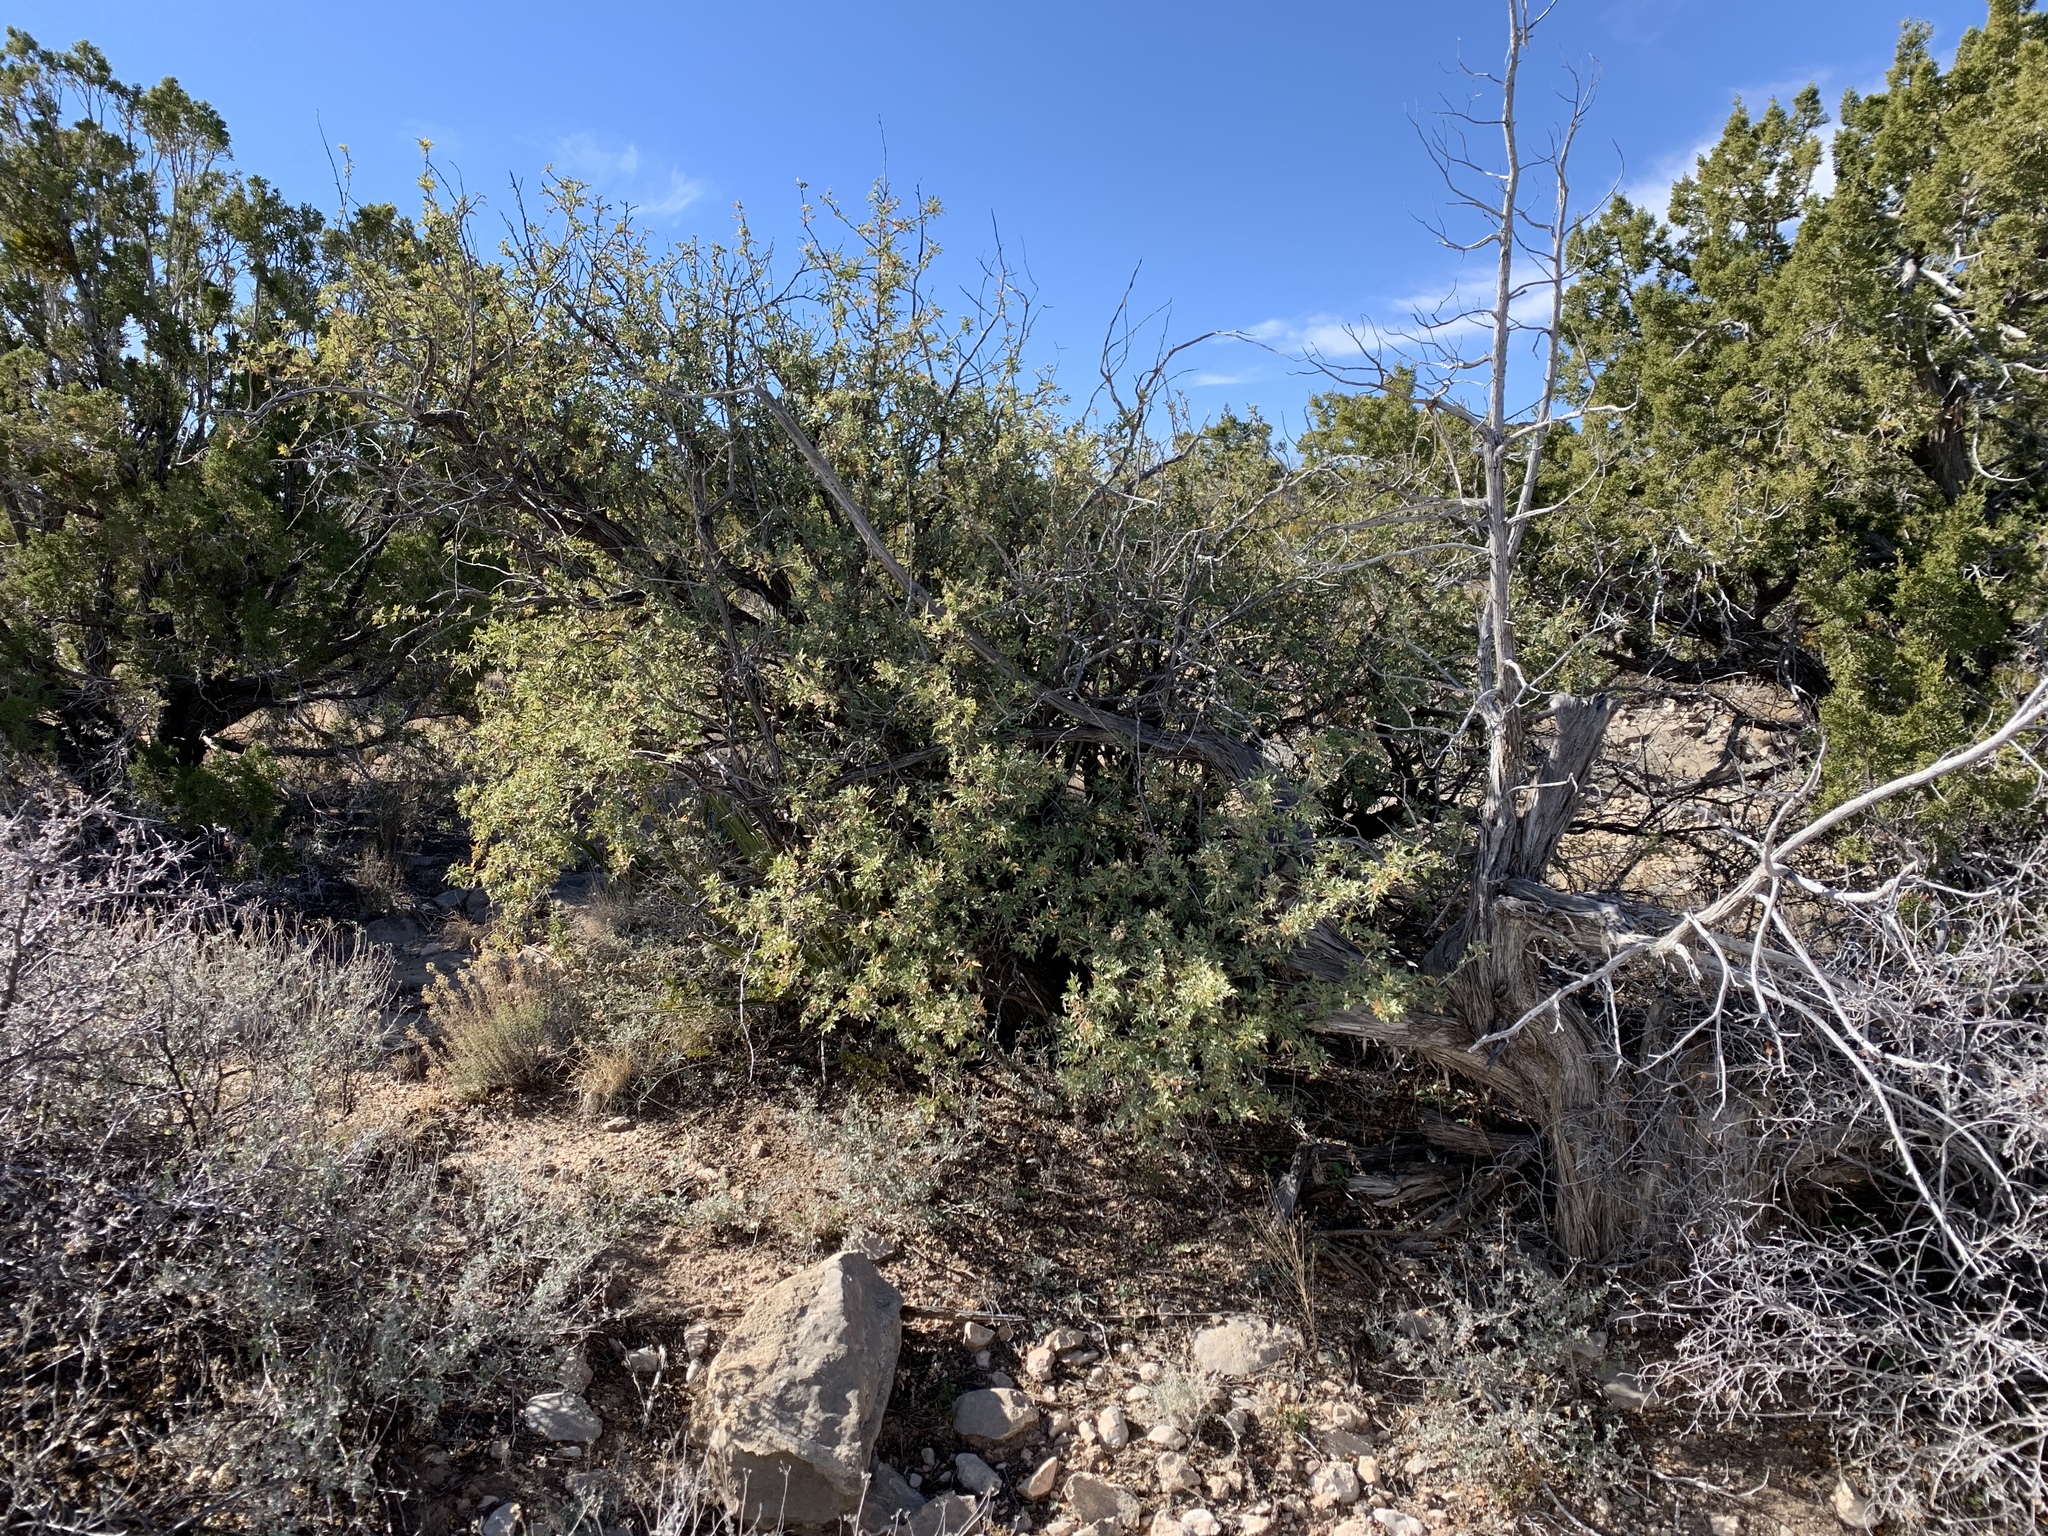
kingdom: Plantae
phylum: Tracheophyta
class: Magnoliopsida
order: Ranunculales
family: Berberidaceae
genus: Alloberberis
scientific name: Alloberberis haematocarpa
